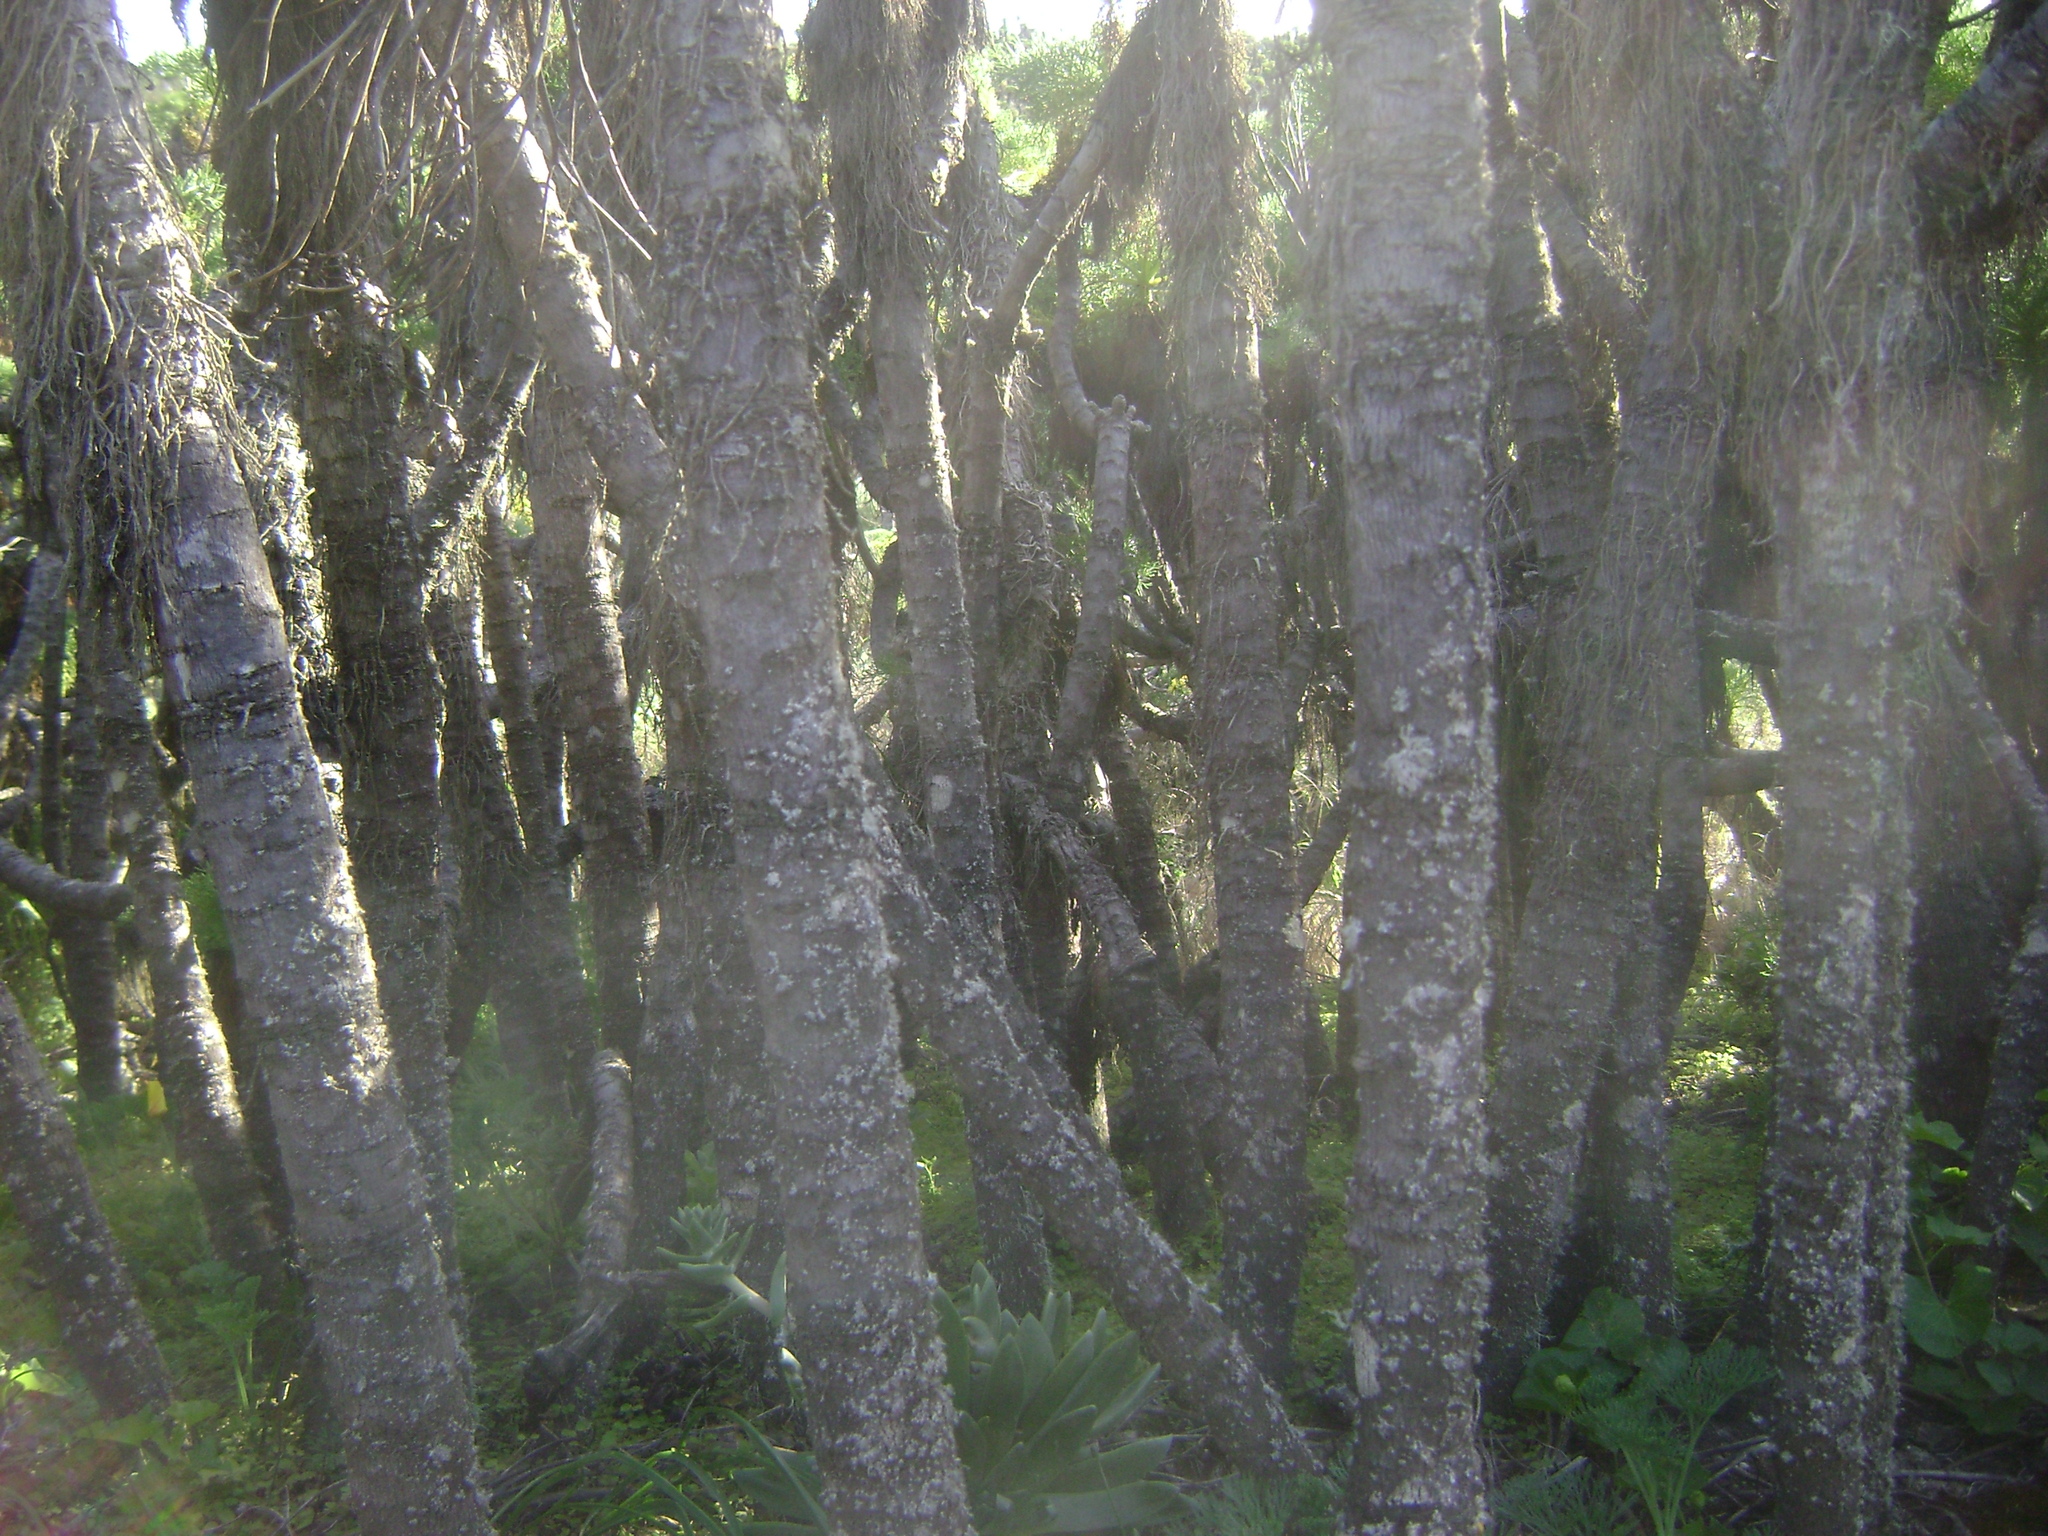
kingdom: Plantae
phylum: Tracheophyta
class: Magnoliopsida
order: Asterales
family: Asteraceae
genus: Coreopsis
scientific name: Coreopsis gigantea
